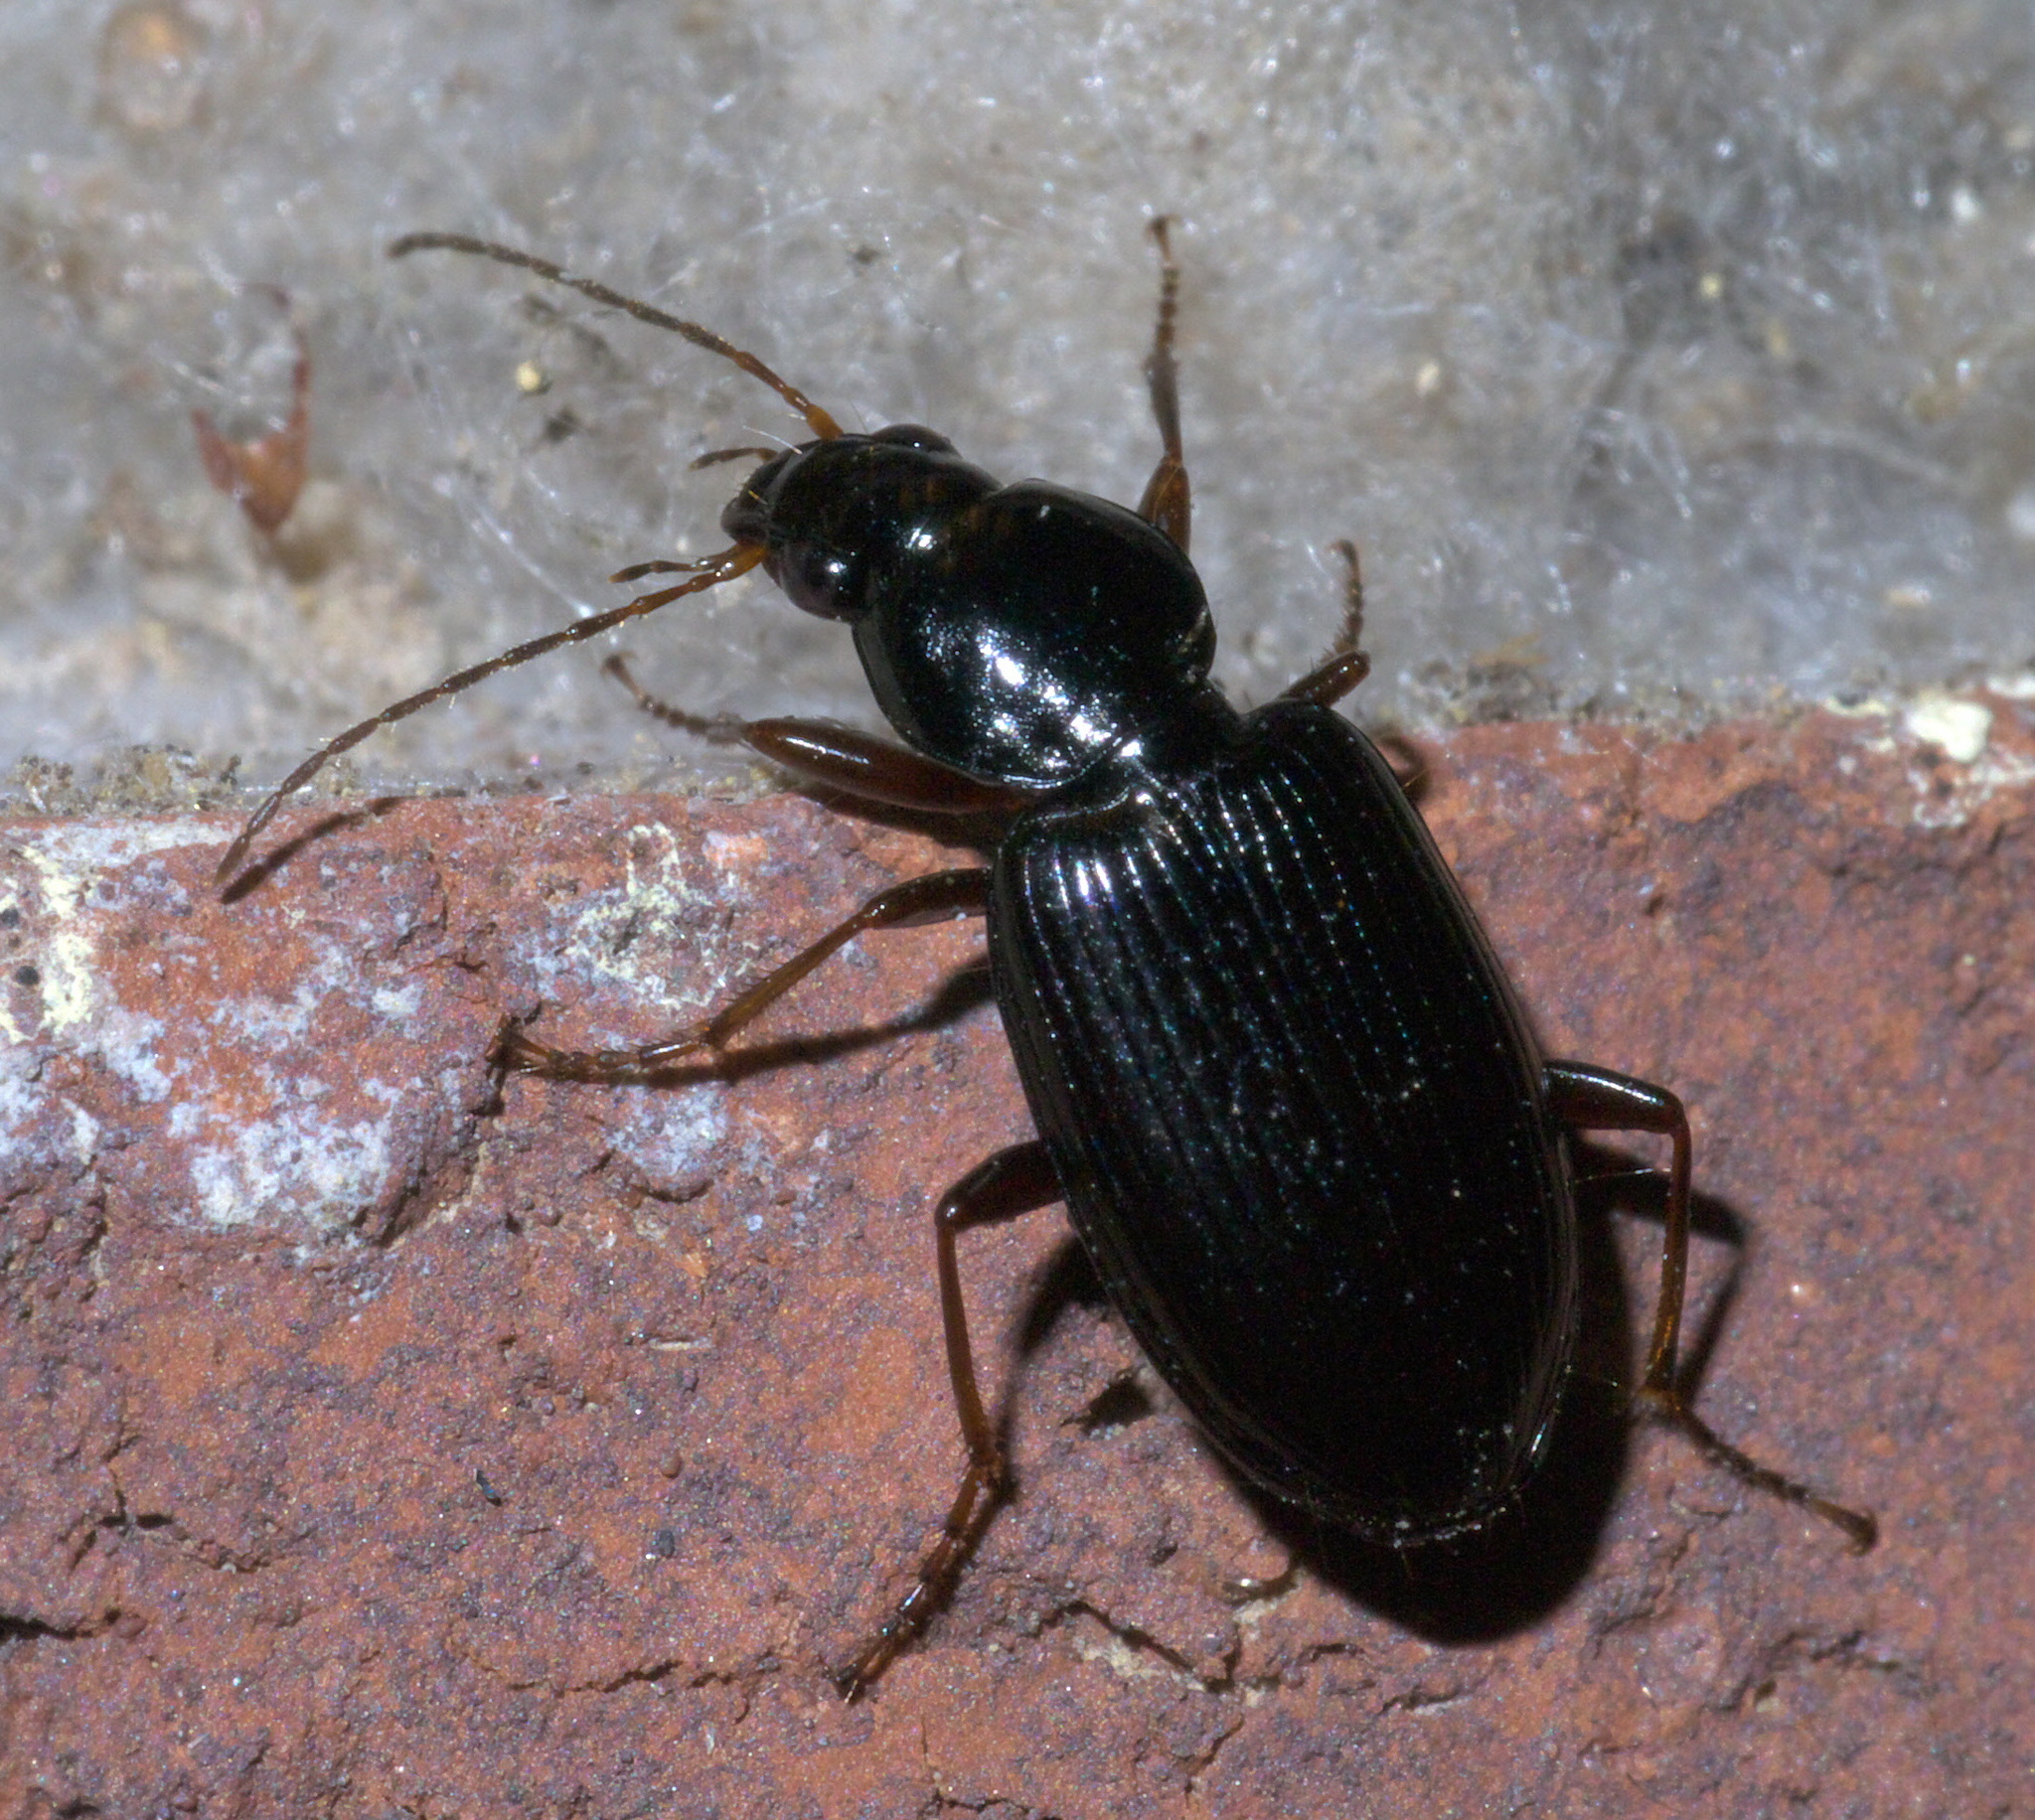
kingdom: Animalia
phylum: Arthropoda
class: Insecta
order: Coleoptera
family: Carabidae
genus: Agonum
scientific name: Agonum punctiforme
